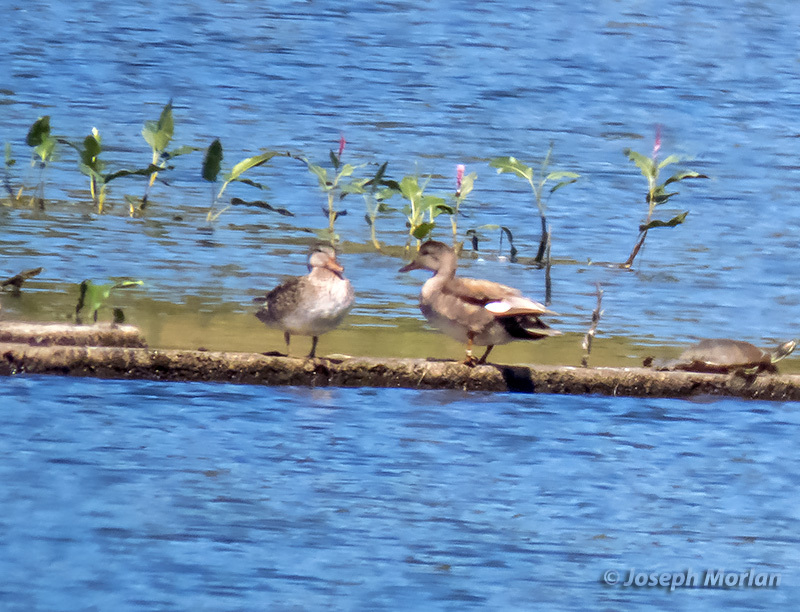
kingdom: Animalia
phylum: Chordata
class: Aves
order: Anseriformes
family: Anatidae
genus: Mareca
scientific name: Mareca strepera
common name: Gadwall
